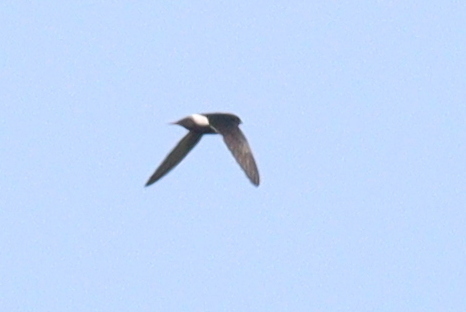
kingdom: Animalia
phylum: Chordata
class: Aves
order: Apodiformes
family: Apodidae
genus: Apus
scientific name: Apus affinis
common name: Little swift
